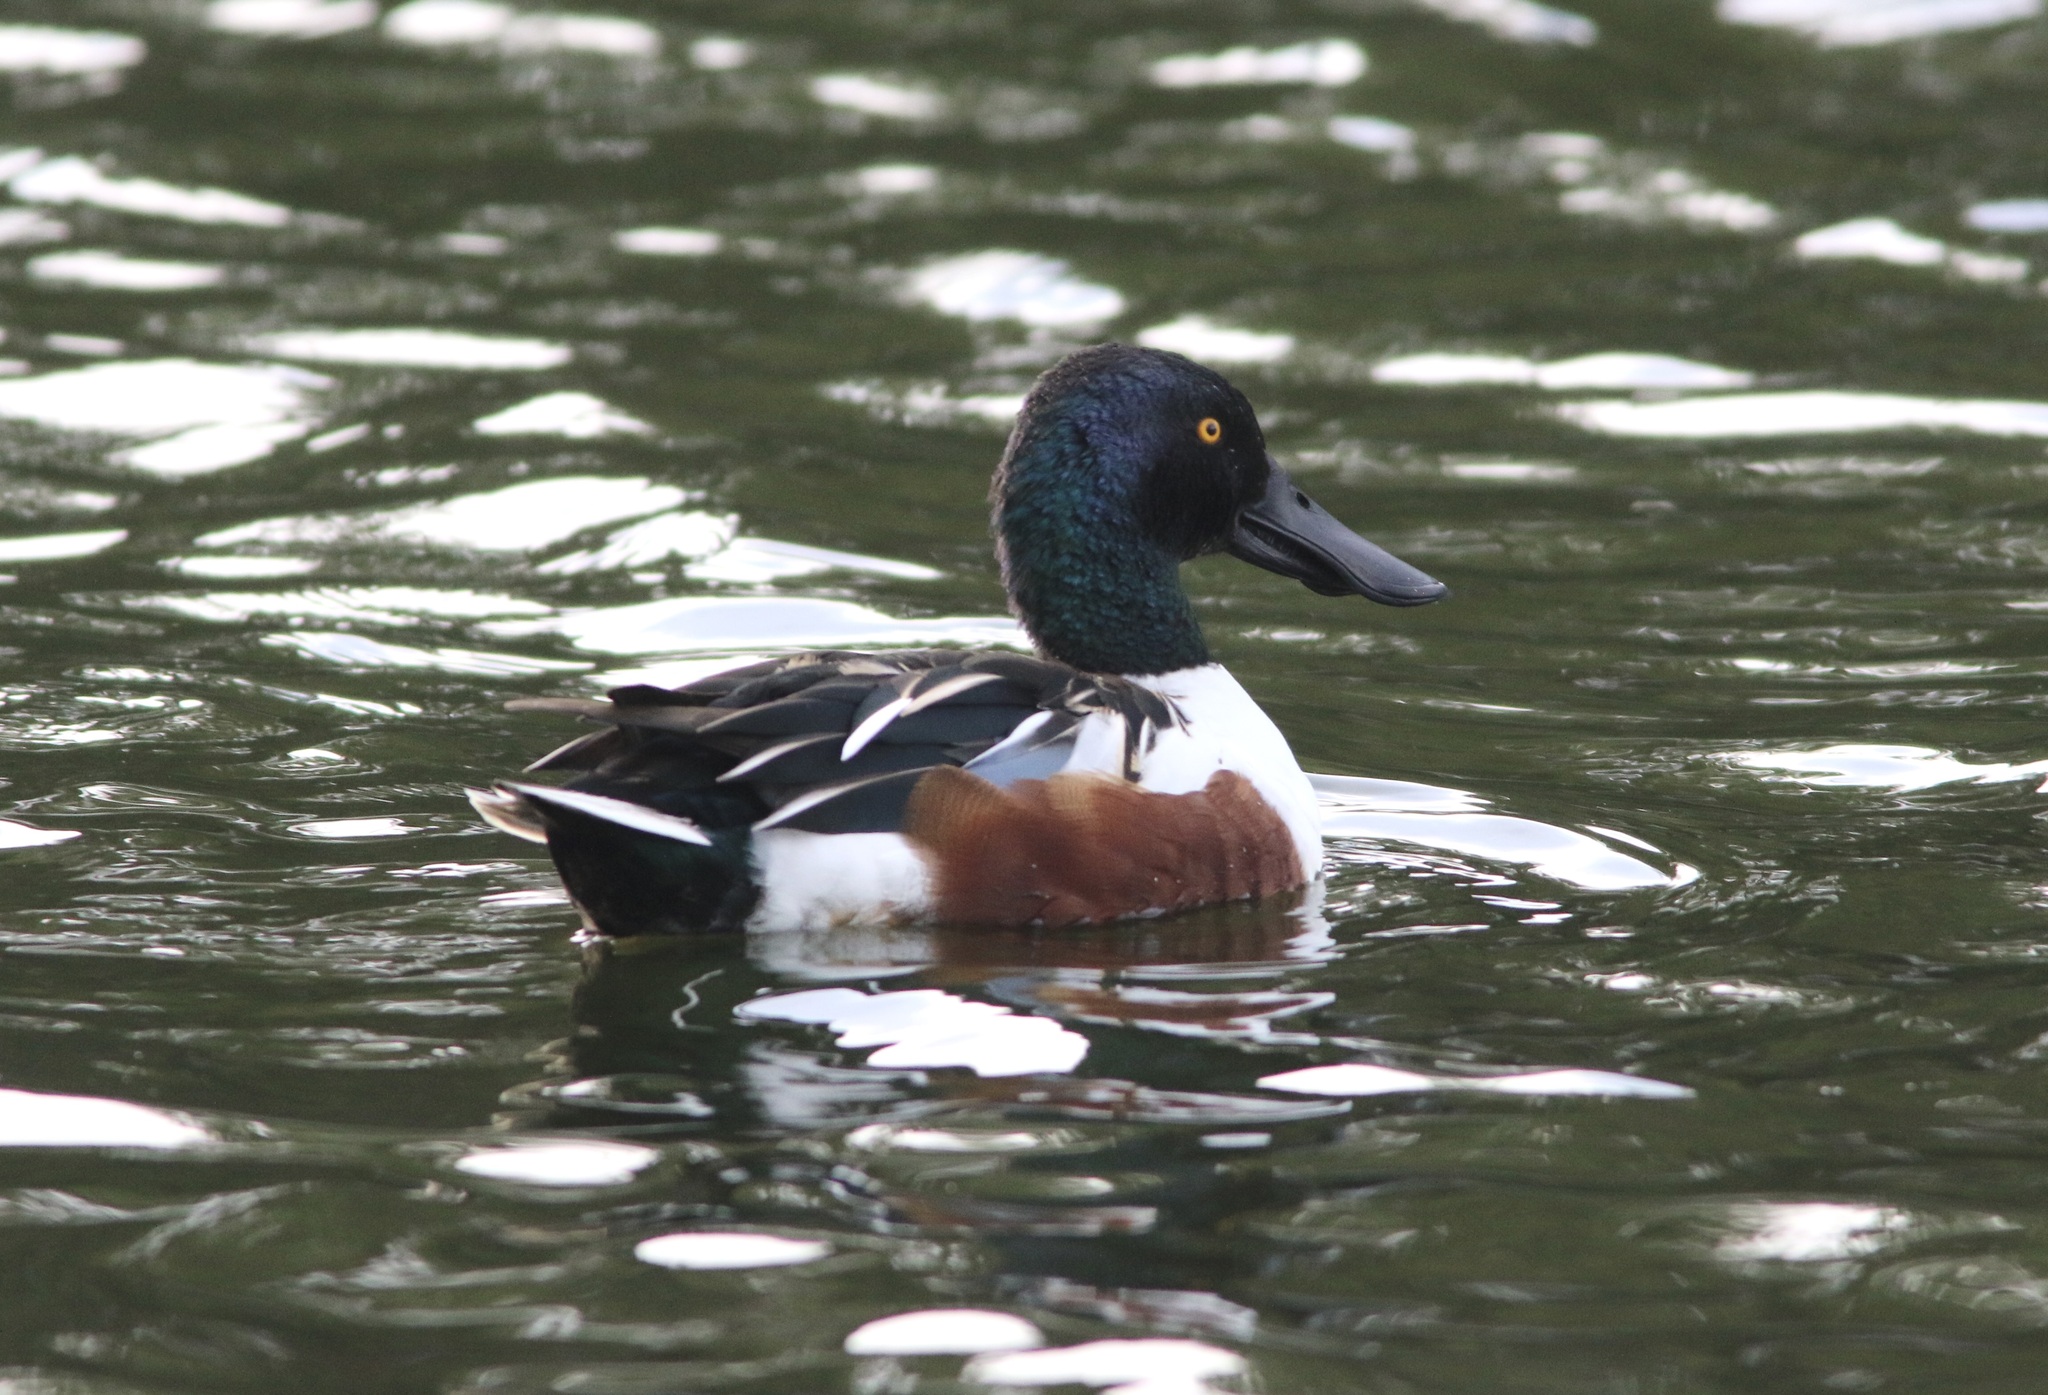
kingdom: Animalia
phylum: Chordata
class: Aves
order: Anseriformes
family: Anatidae
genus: Spatula
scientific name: Spatula clypeata
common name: Northern shoveler
